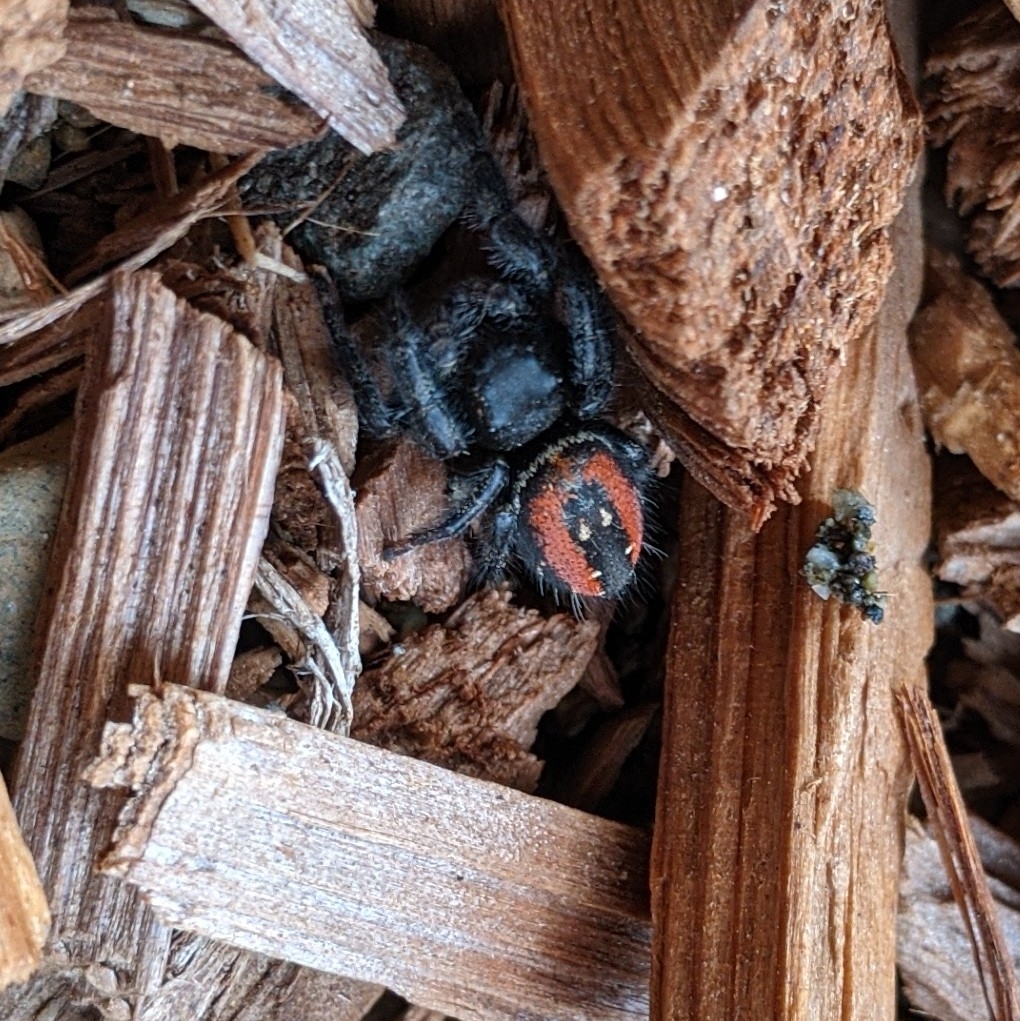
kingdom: Animalia
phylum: Arthropoda
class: Arachnida
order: Araneae
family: Salticidae
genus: Phidippus
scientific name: Phidippus johnsoni
